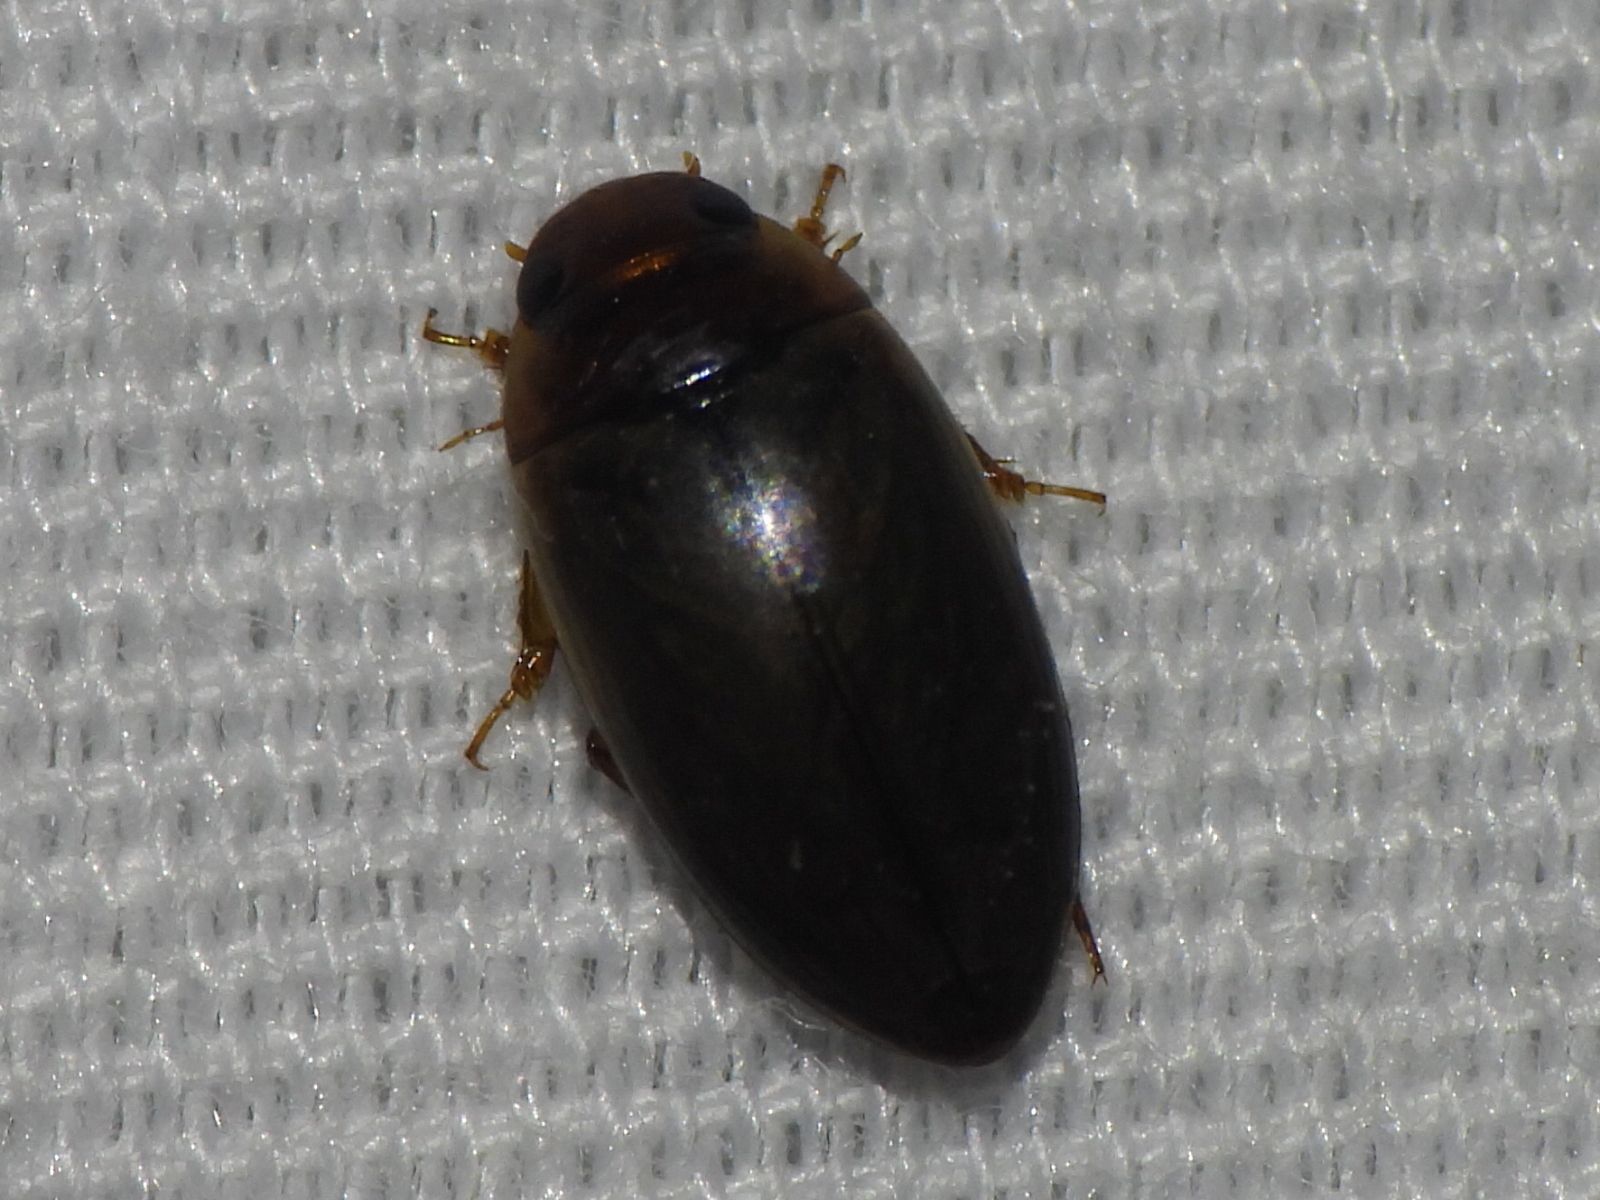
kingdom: Animalia
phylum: Arthropoda
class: Insecta
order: Coleoptera
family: Dytiscidae
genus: Copelatus
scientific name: Copelatus chevrolati
